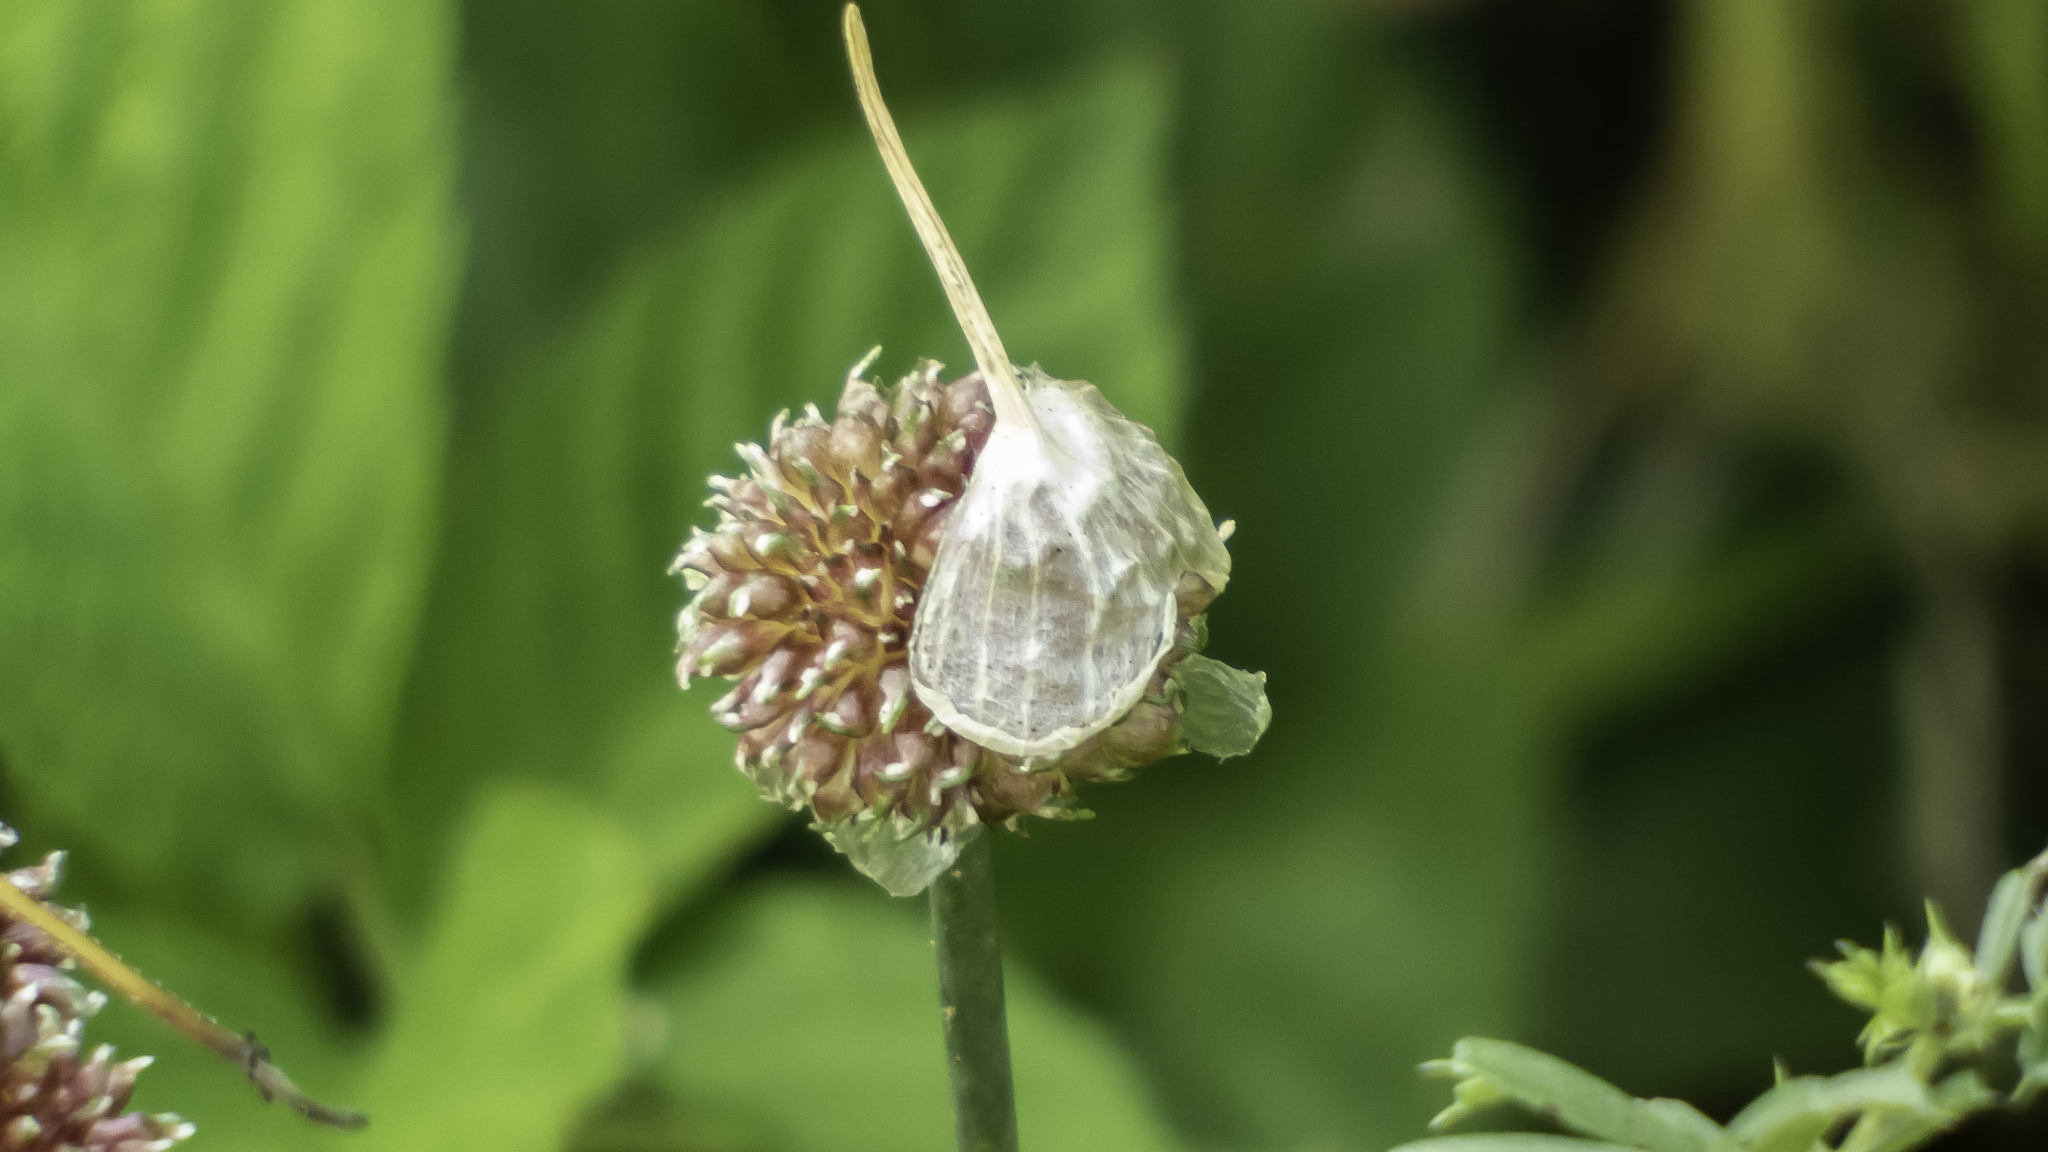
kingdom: Plantae
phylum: Tracheophyta
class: Liliopsida
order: Asparagales
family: Amaryllidaceae
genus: Allium
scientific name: Allium vineale
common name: Crow garlic
